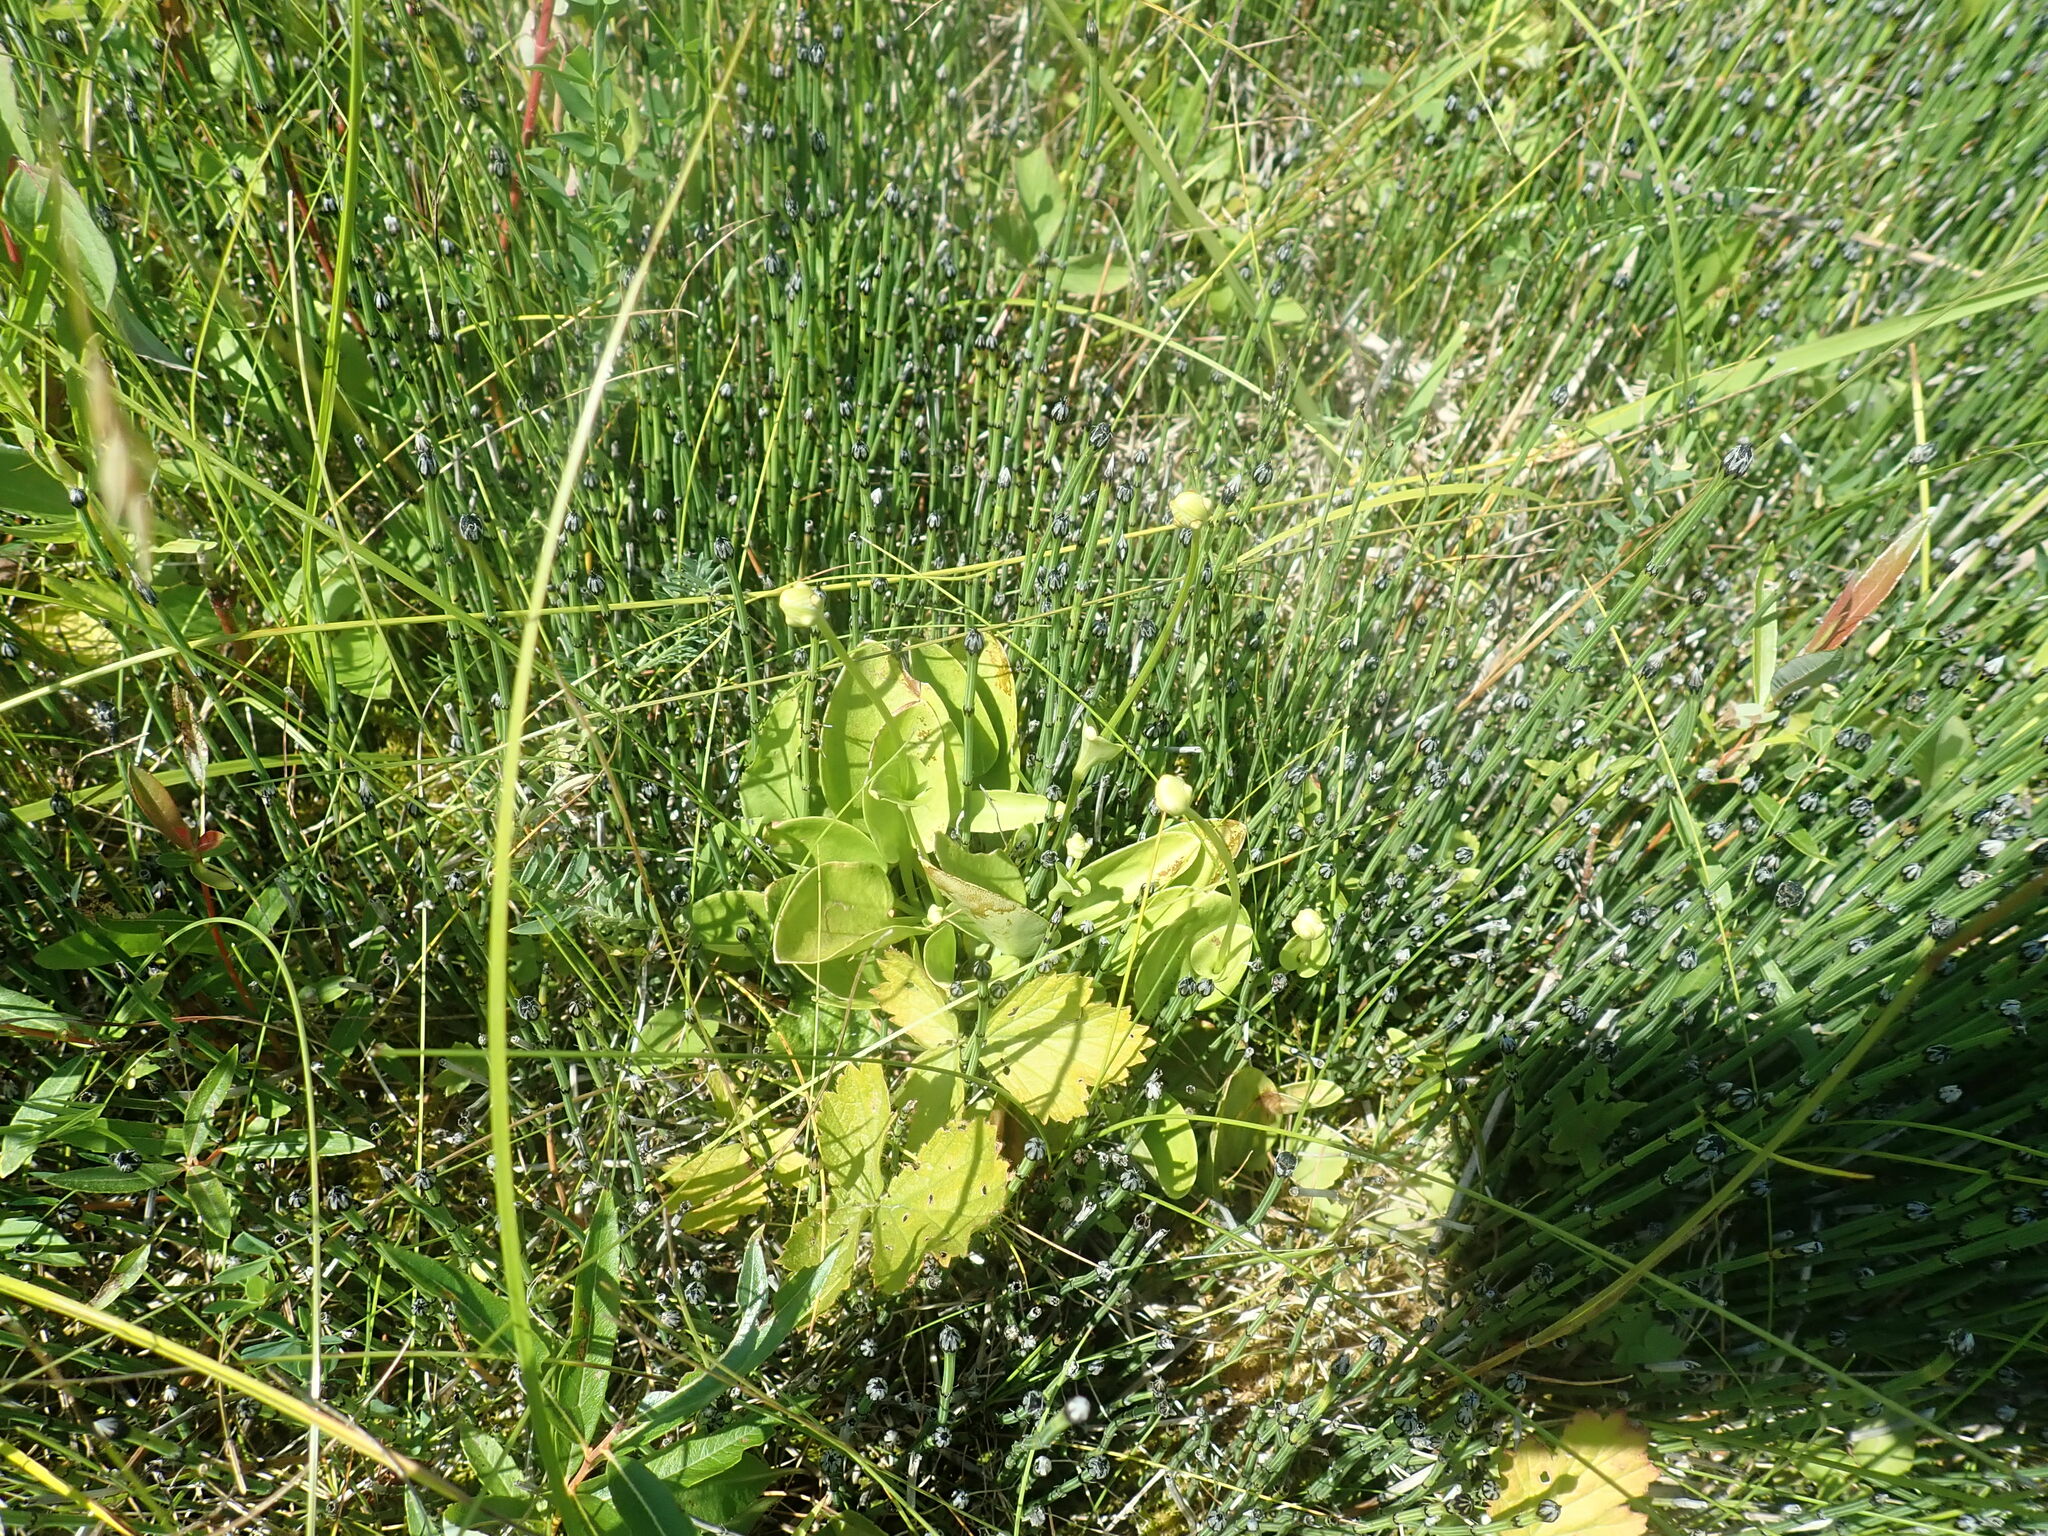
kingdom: Plantae
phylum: Tracheophyta
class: Magnoliopsida
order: Celastrales
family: Parnassiaceae
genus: Parnassia
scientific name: Parnassia glauca
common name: American grass-of-parnassus
